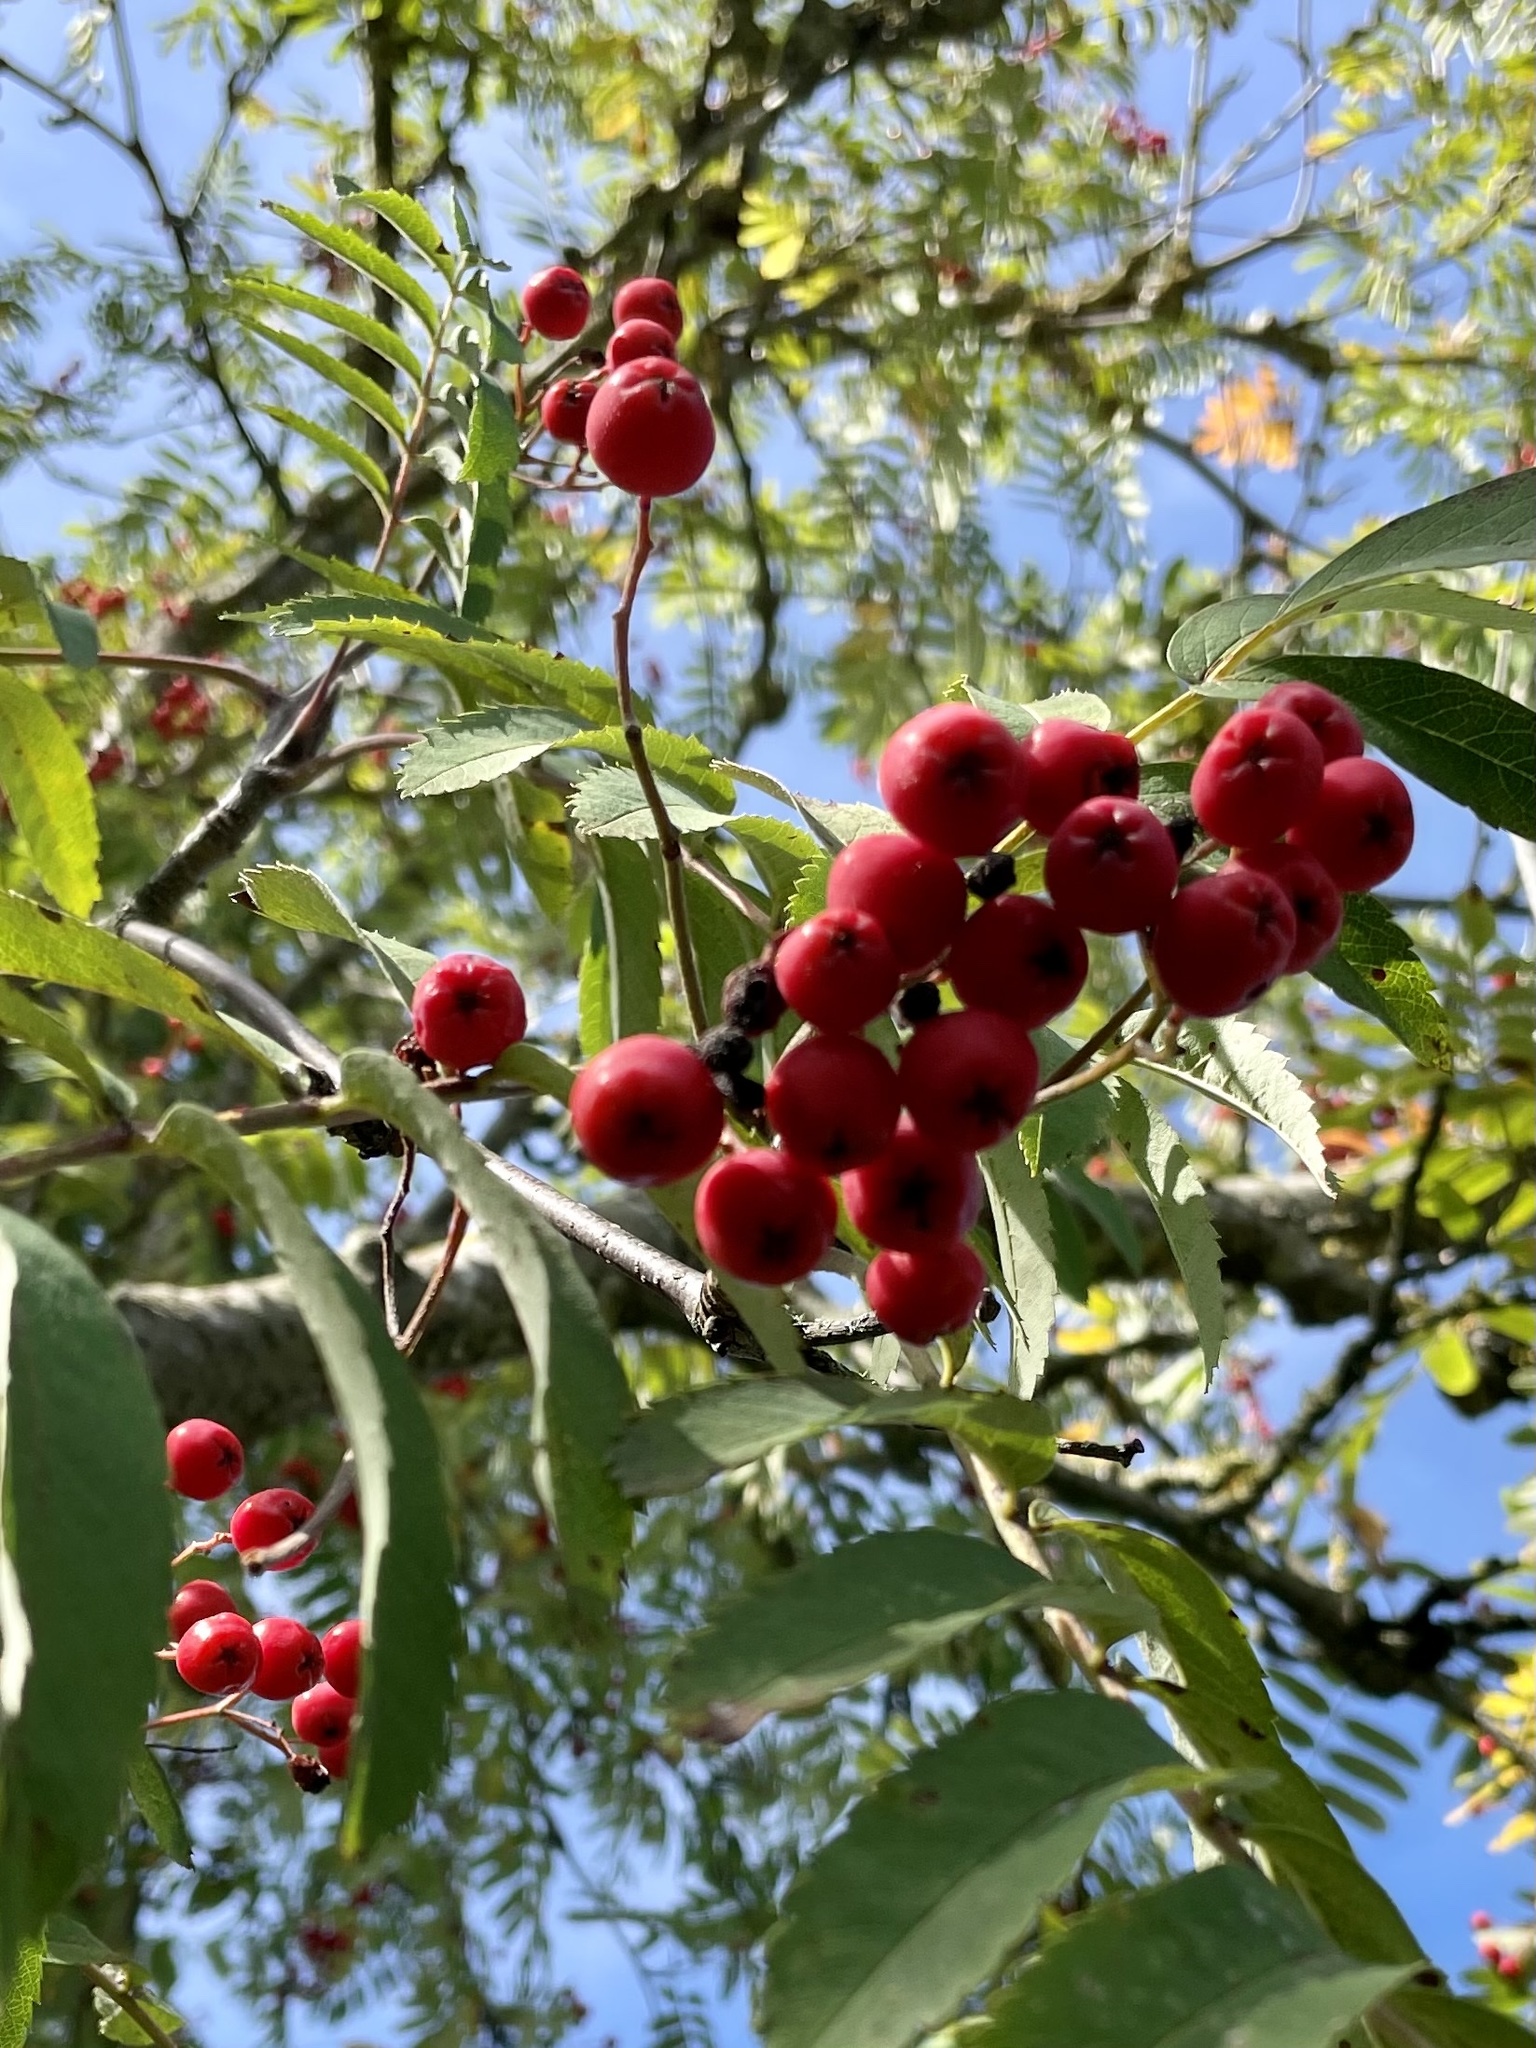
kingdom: Plantae
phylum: Tracheophyta
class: Magnoliopsida
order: Rosales
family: Rosaceae
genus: Sorbus
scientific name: Sorbus aucuparia
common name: Rowan
